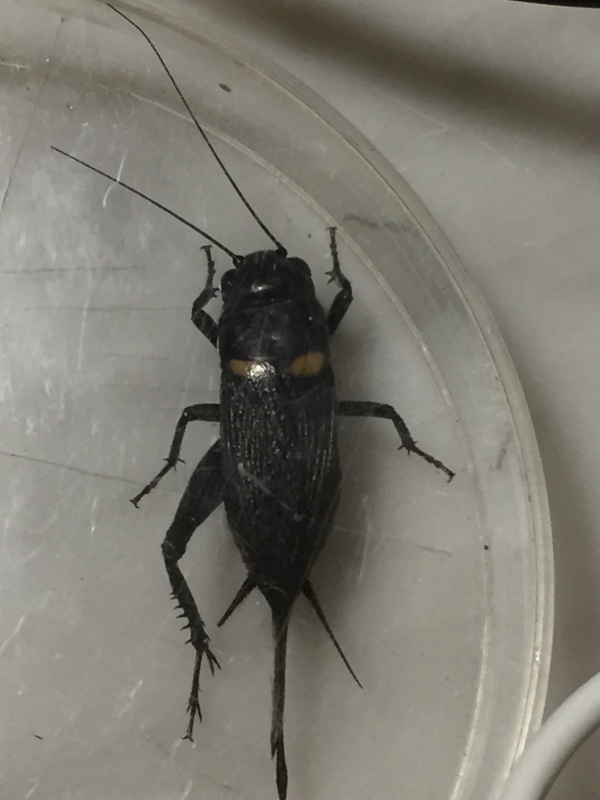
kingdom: Animalia
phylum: Arthropoda
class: Insecta
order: Orthoptera
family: Gryllidae
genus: Gryllus
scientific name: Gryllus bimaculatus
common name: Two-spotted cricket
